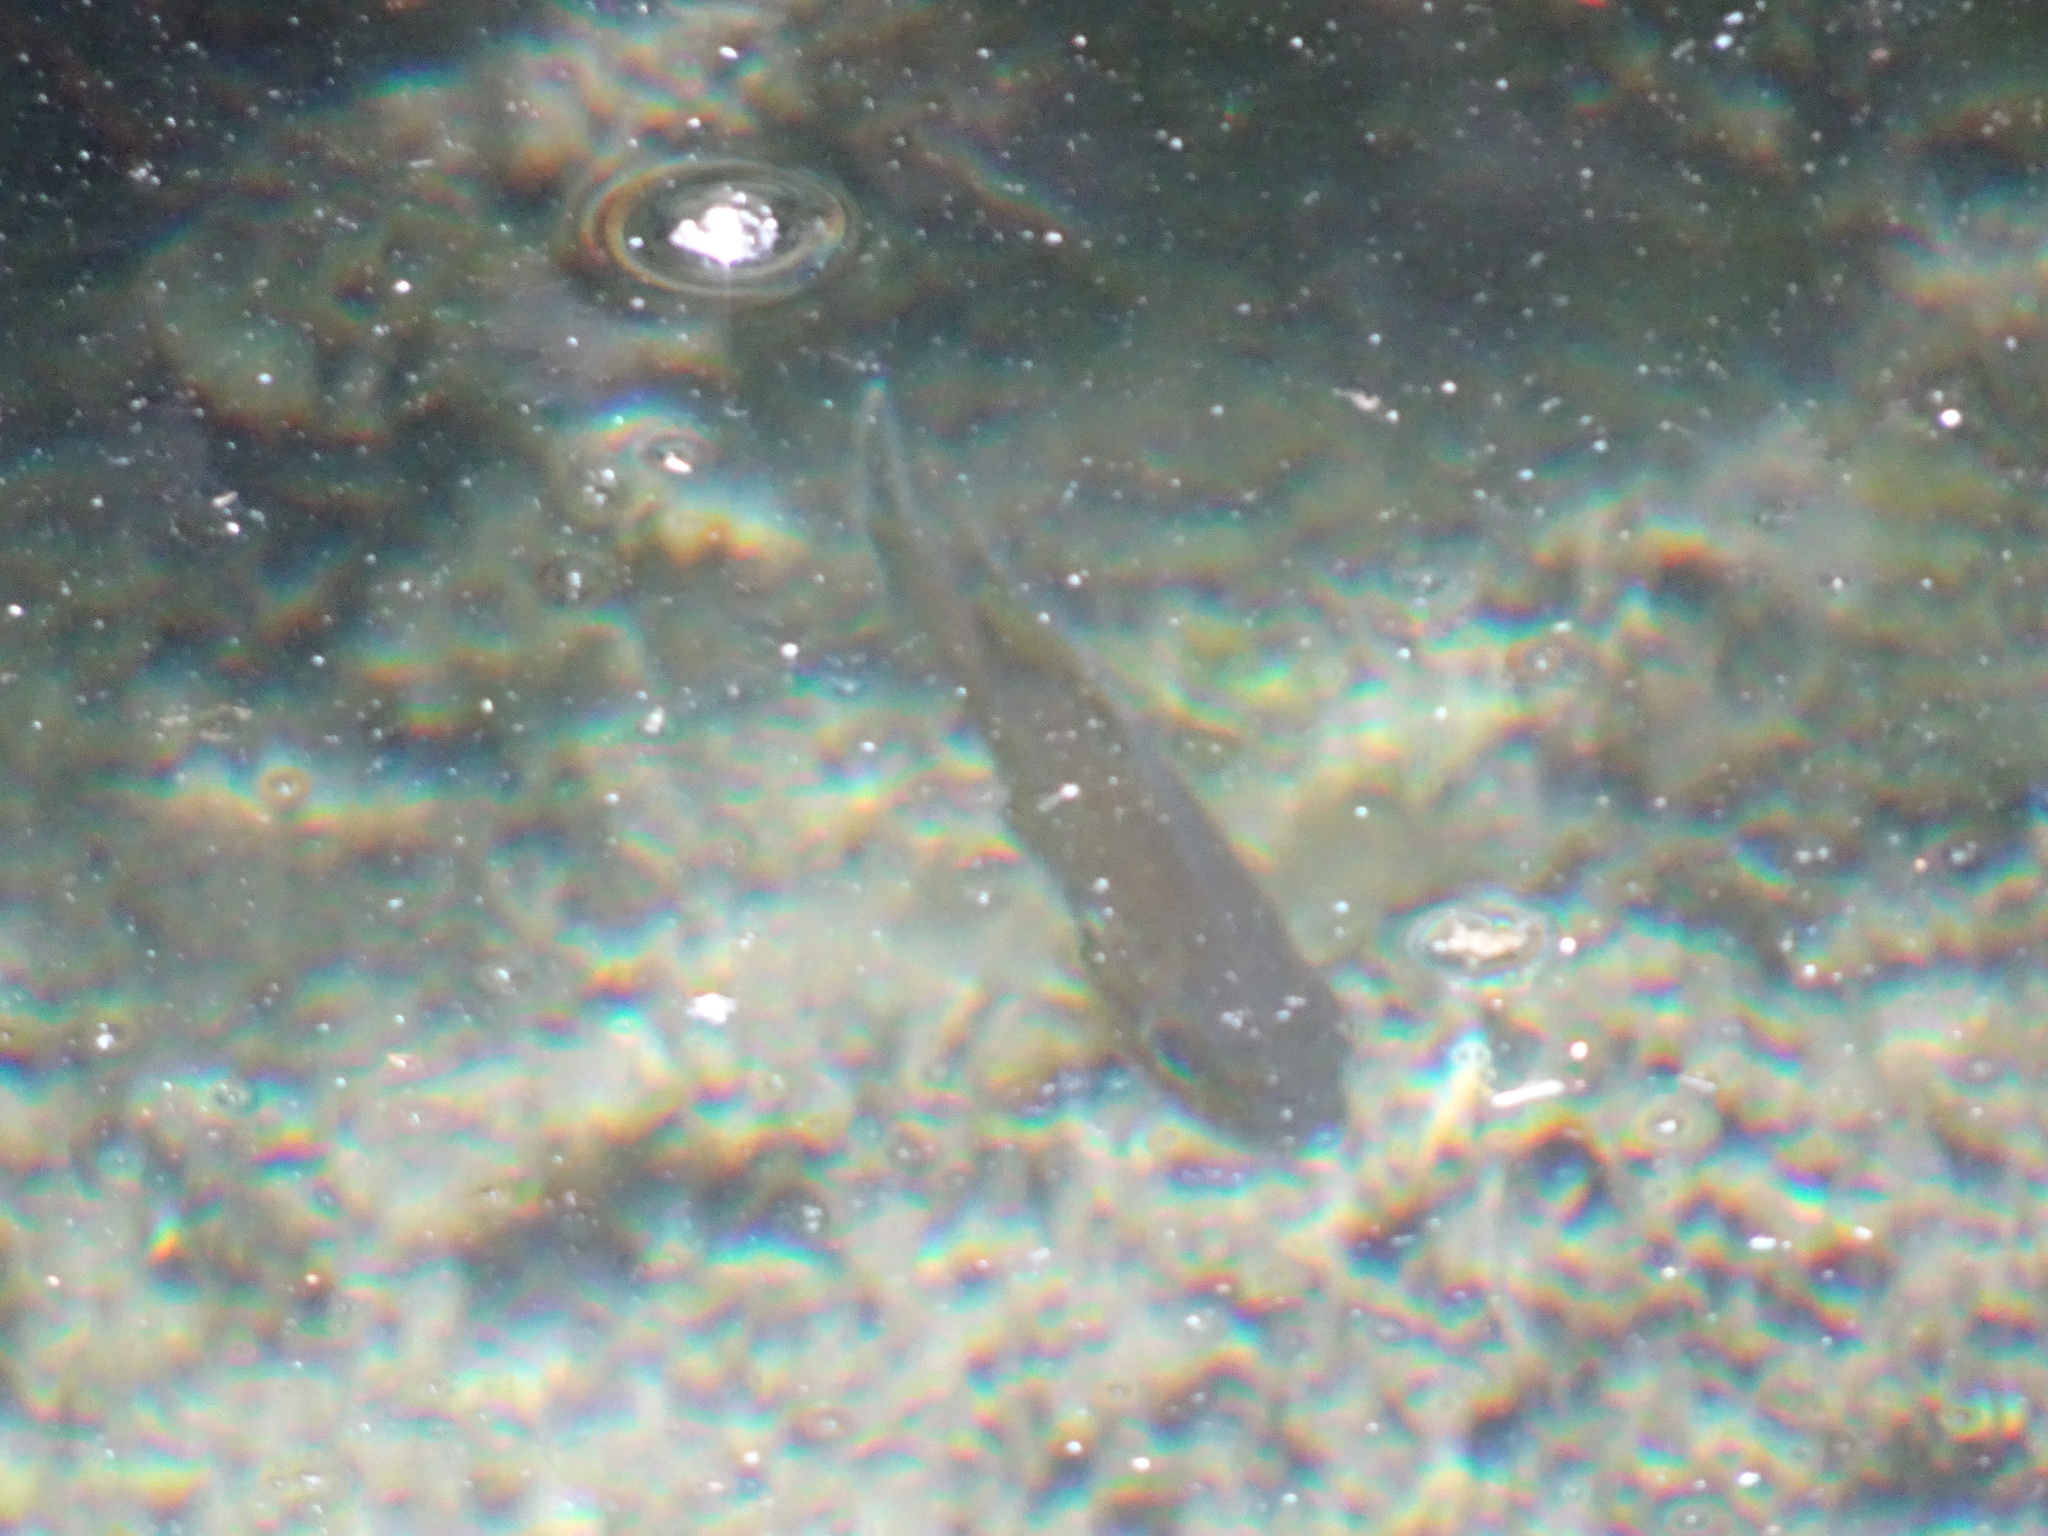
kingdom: Animalia
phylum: Chordata
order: Perciformes
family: Centrarchidae
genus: Lepomis
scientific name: Lepomis gibbosus
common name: Pumpkinseed
